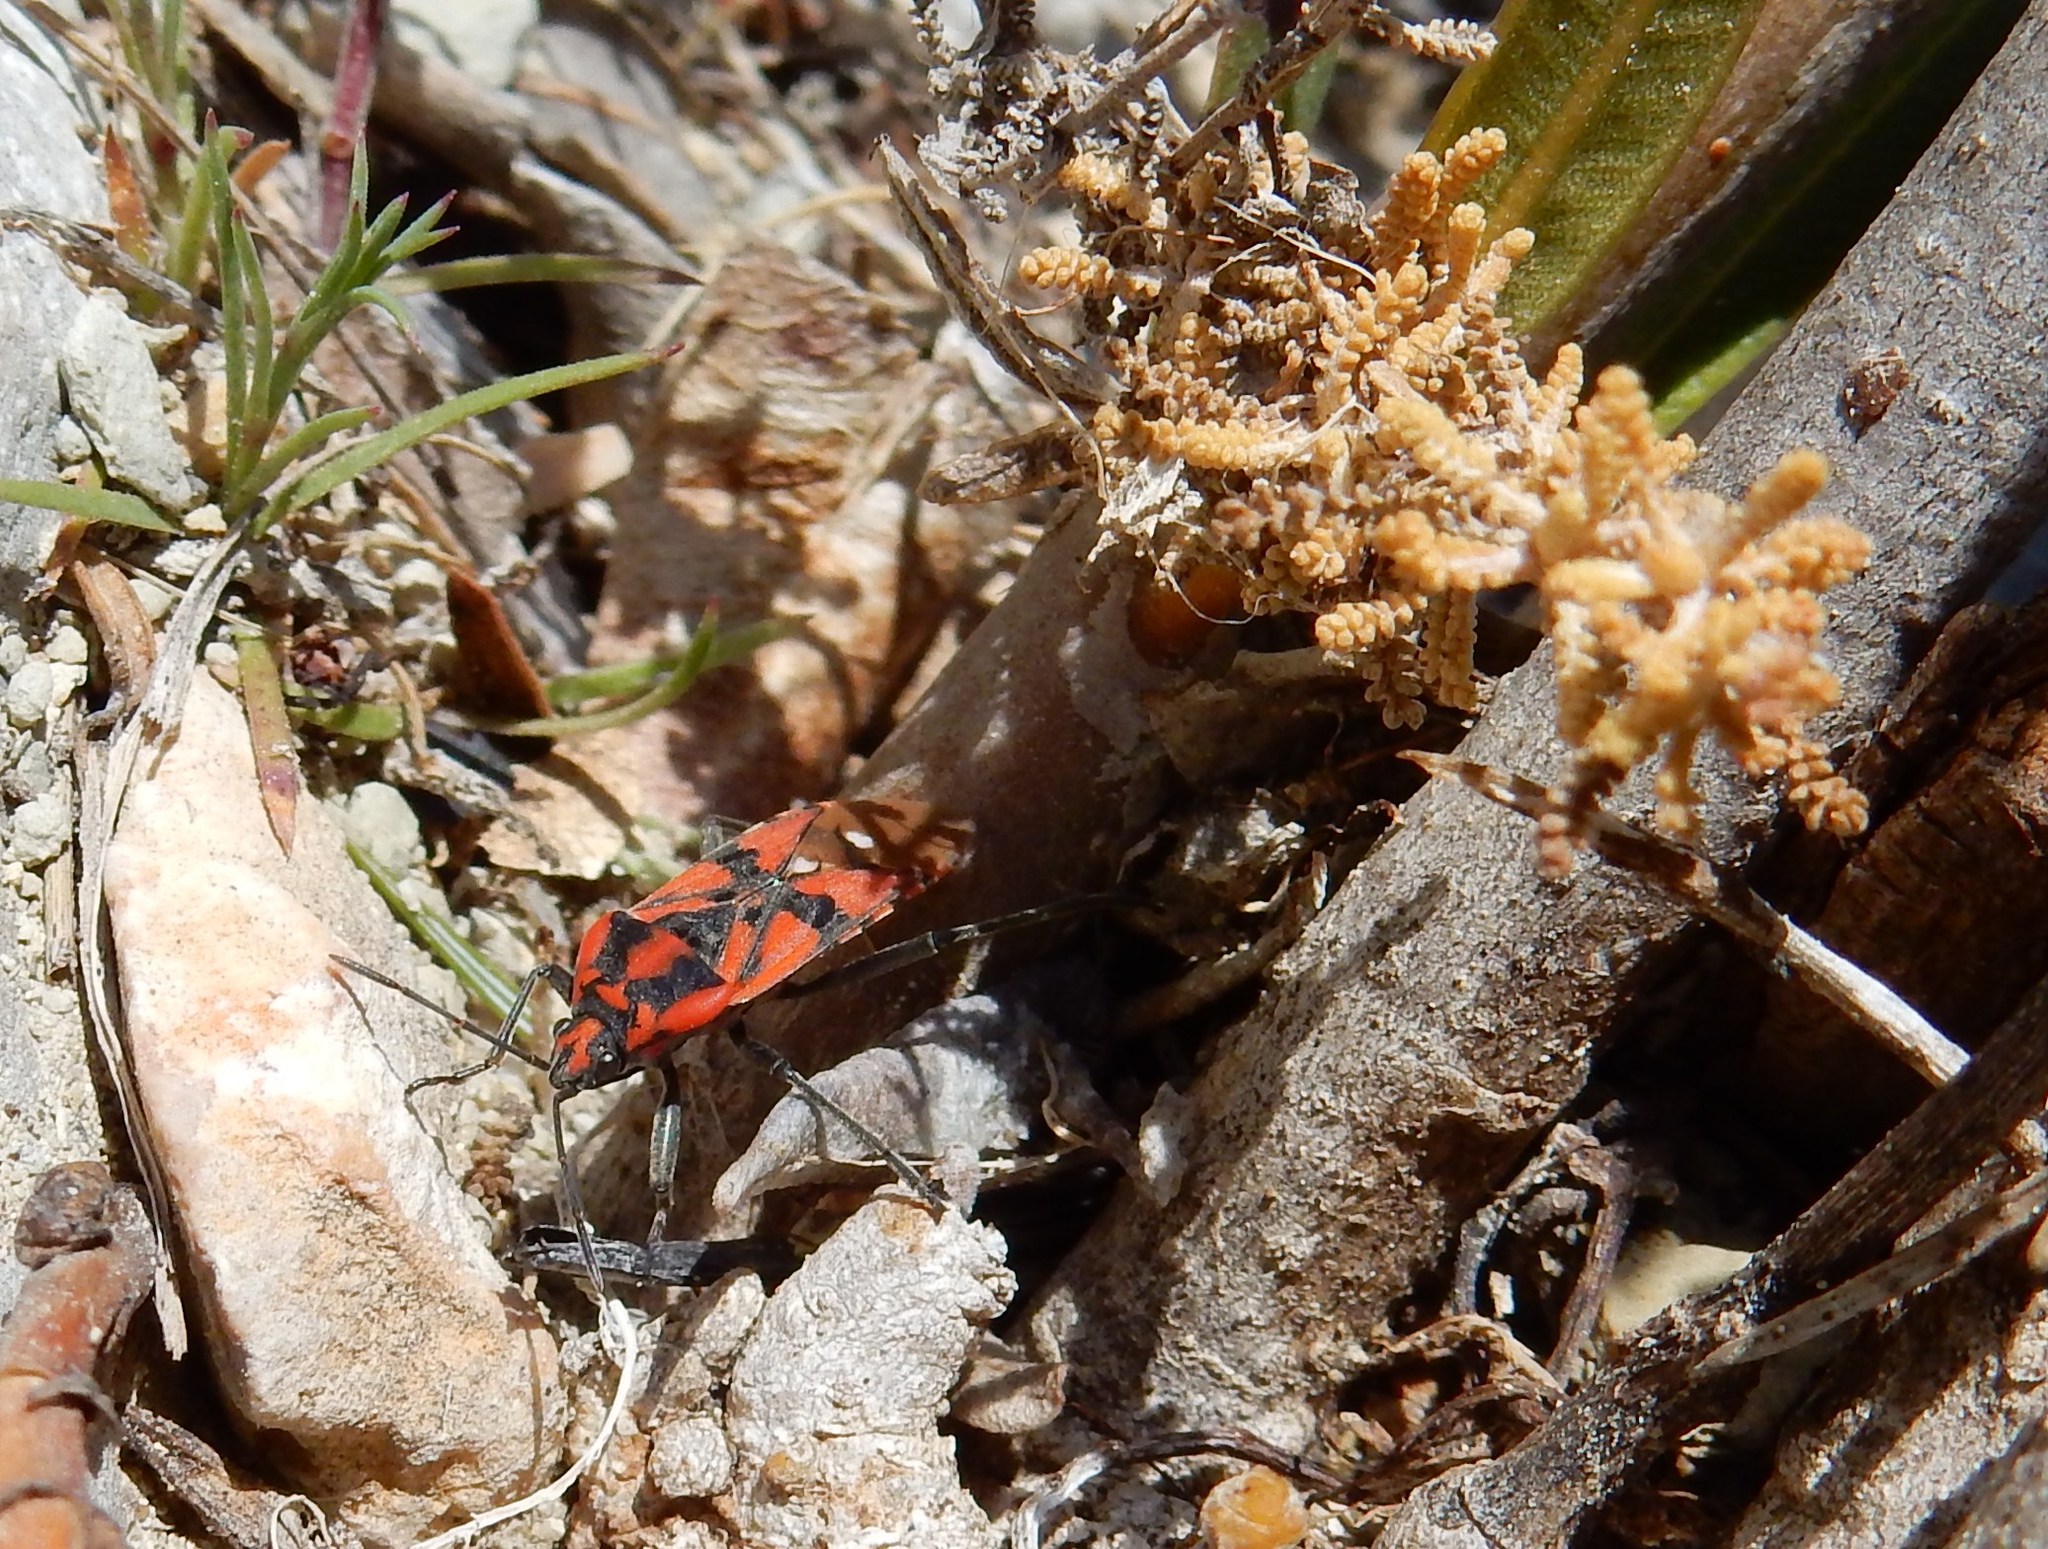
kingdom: Animalia
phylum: Arthropoda
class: Insecta
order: Hemiptera
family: Lygaeidae
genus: Spilostethus
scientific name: Spilostethus pandurus
